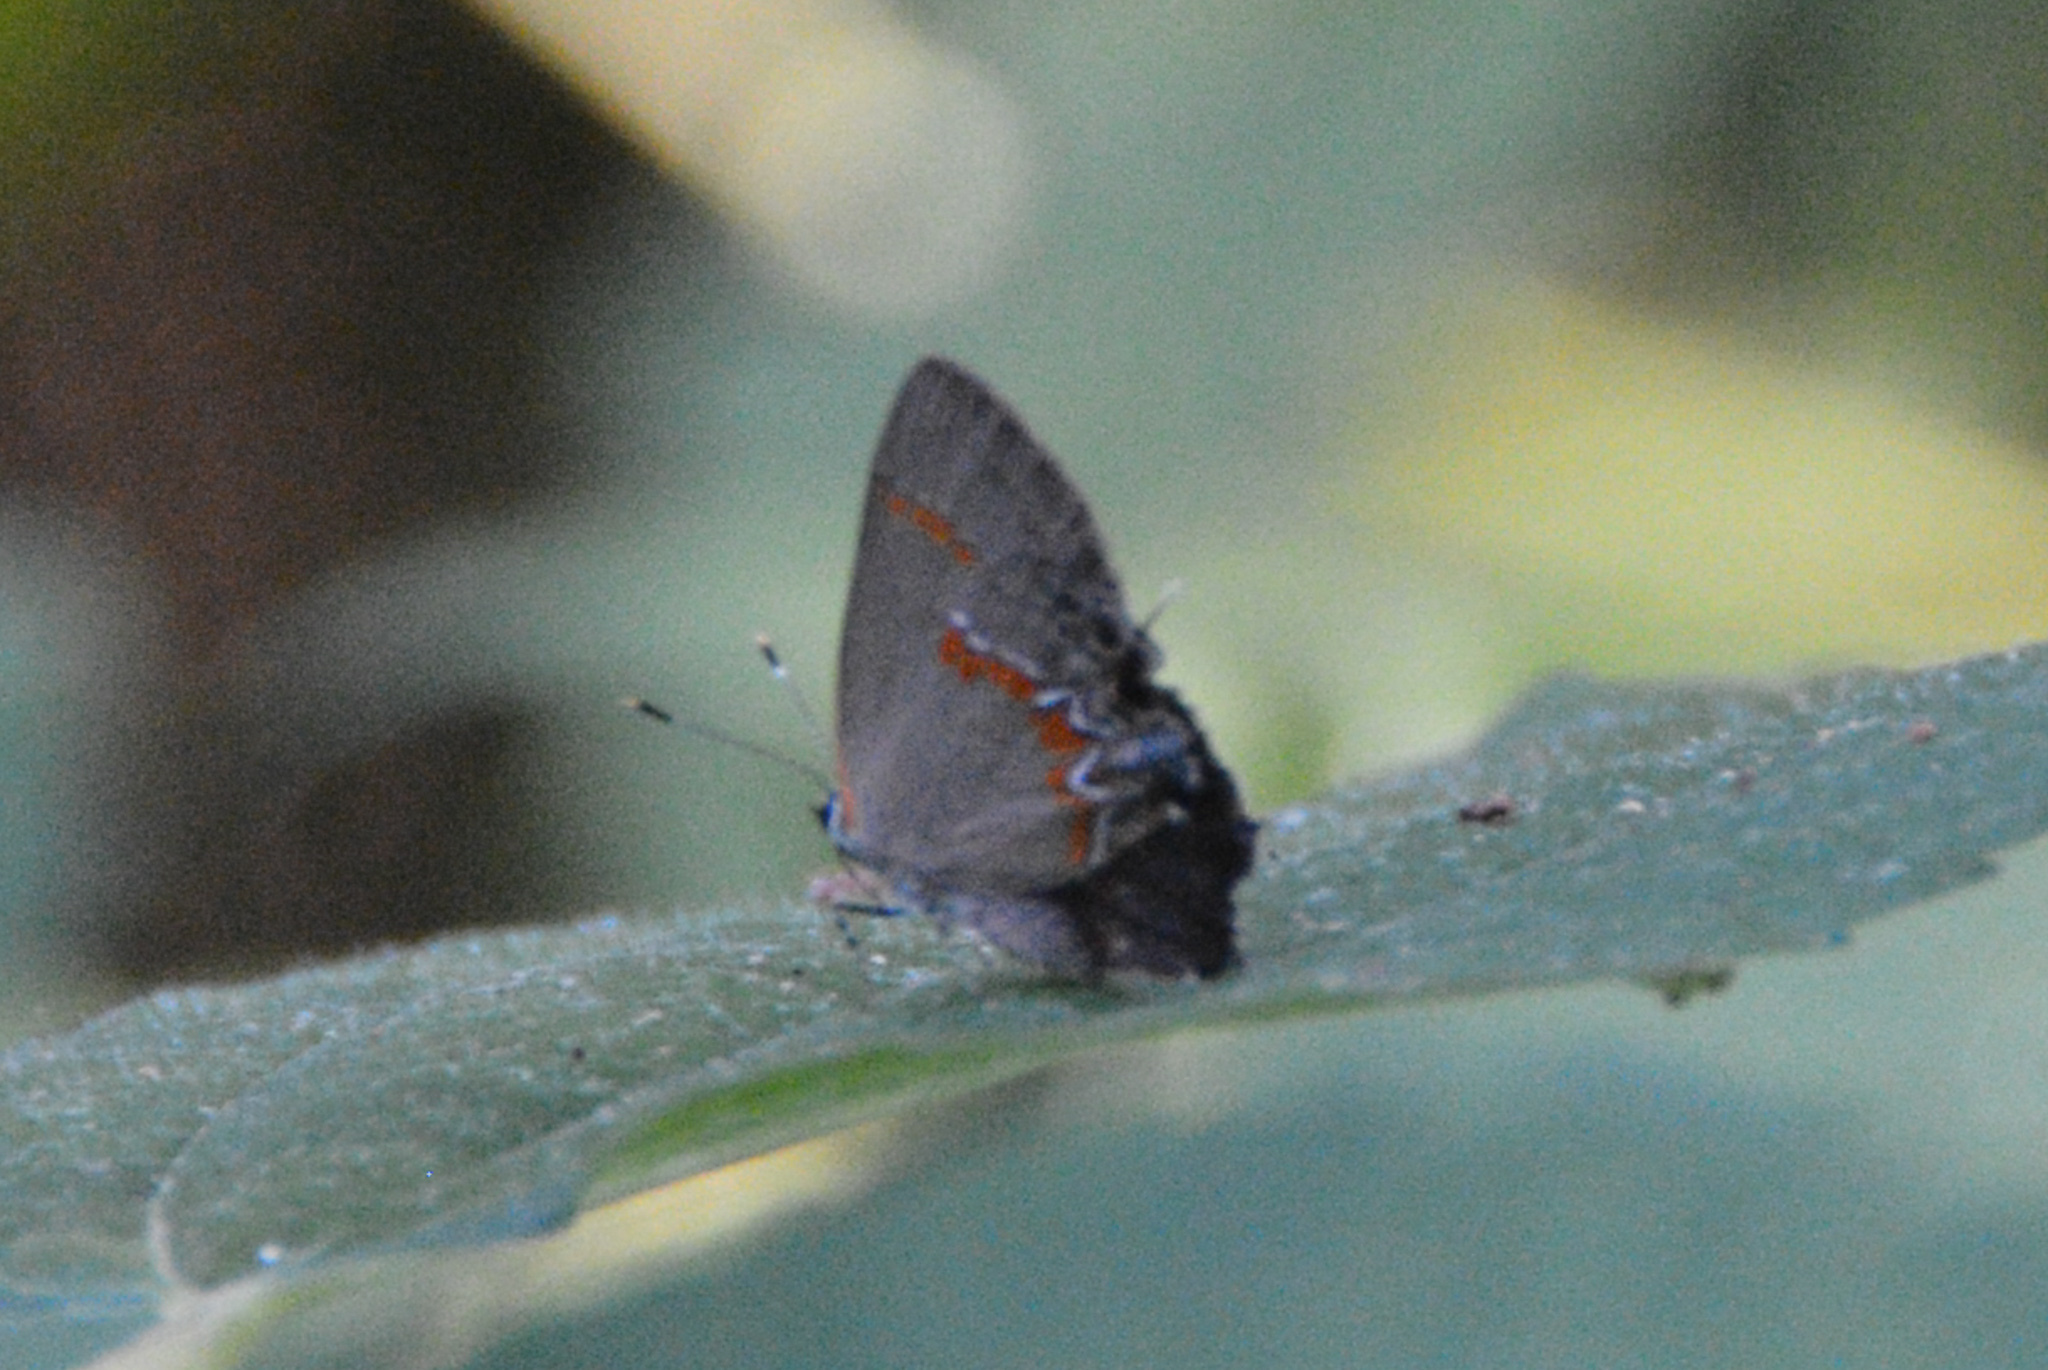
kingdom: Animalia
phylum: Arthropoda
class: Insecta
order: Lepidoptera
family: Lycaenidae
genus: Calycopis
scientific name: Calycopis cecrops
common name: Red-banded hairstreak
